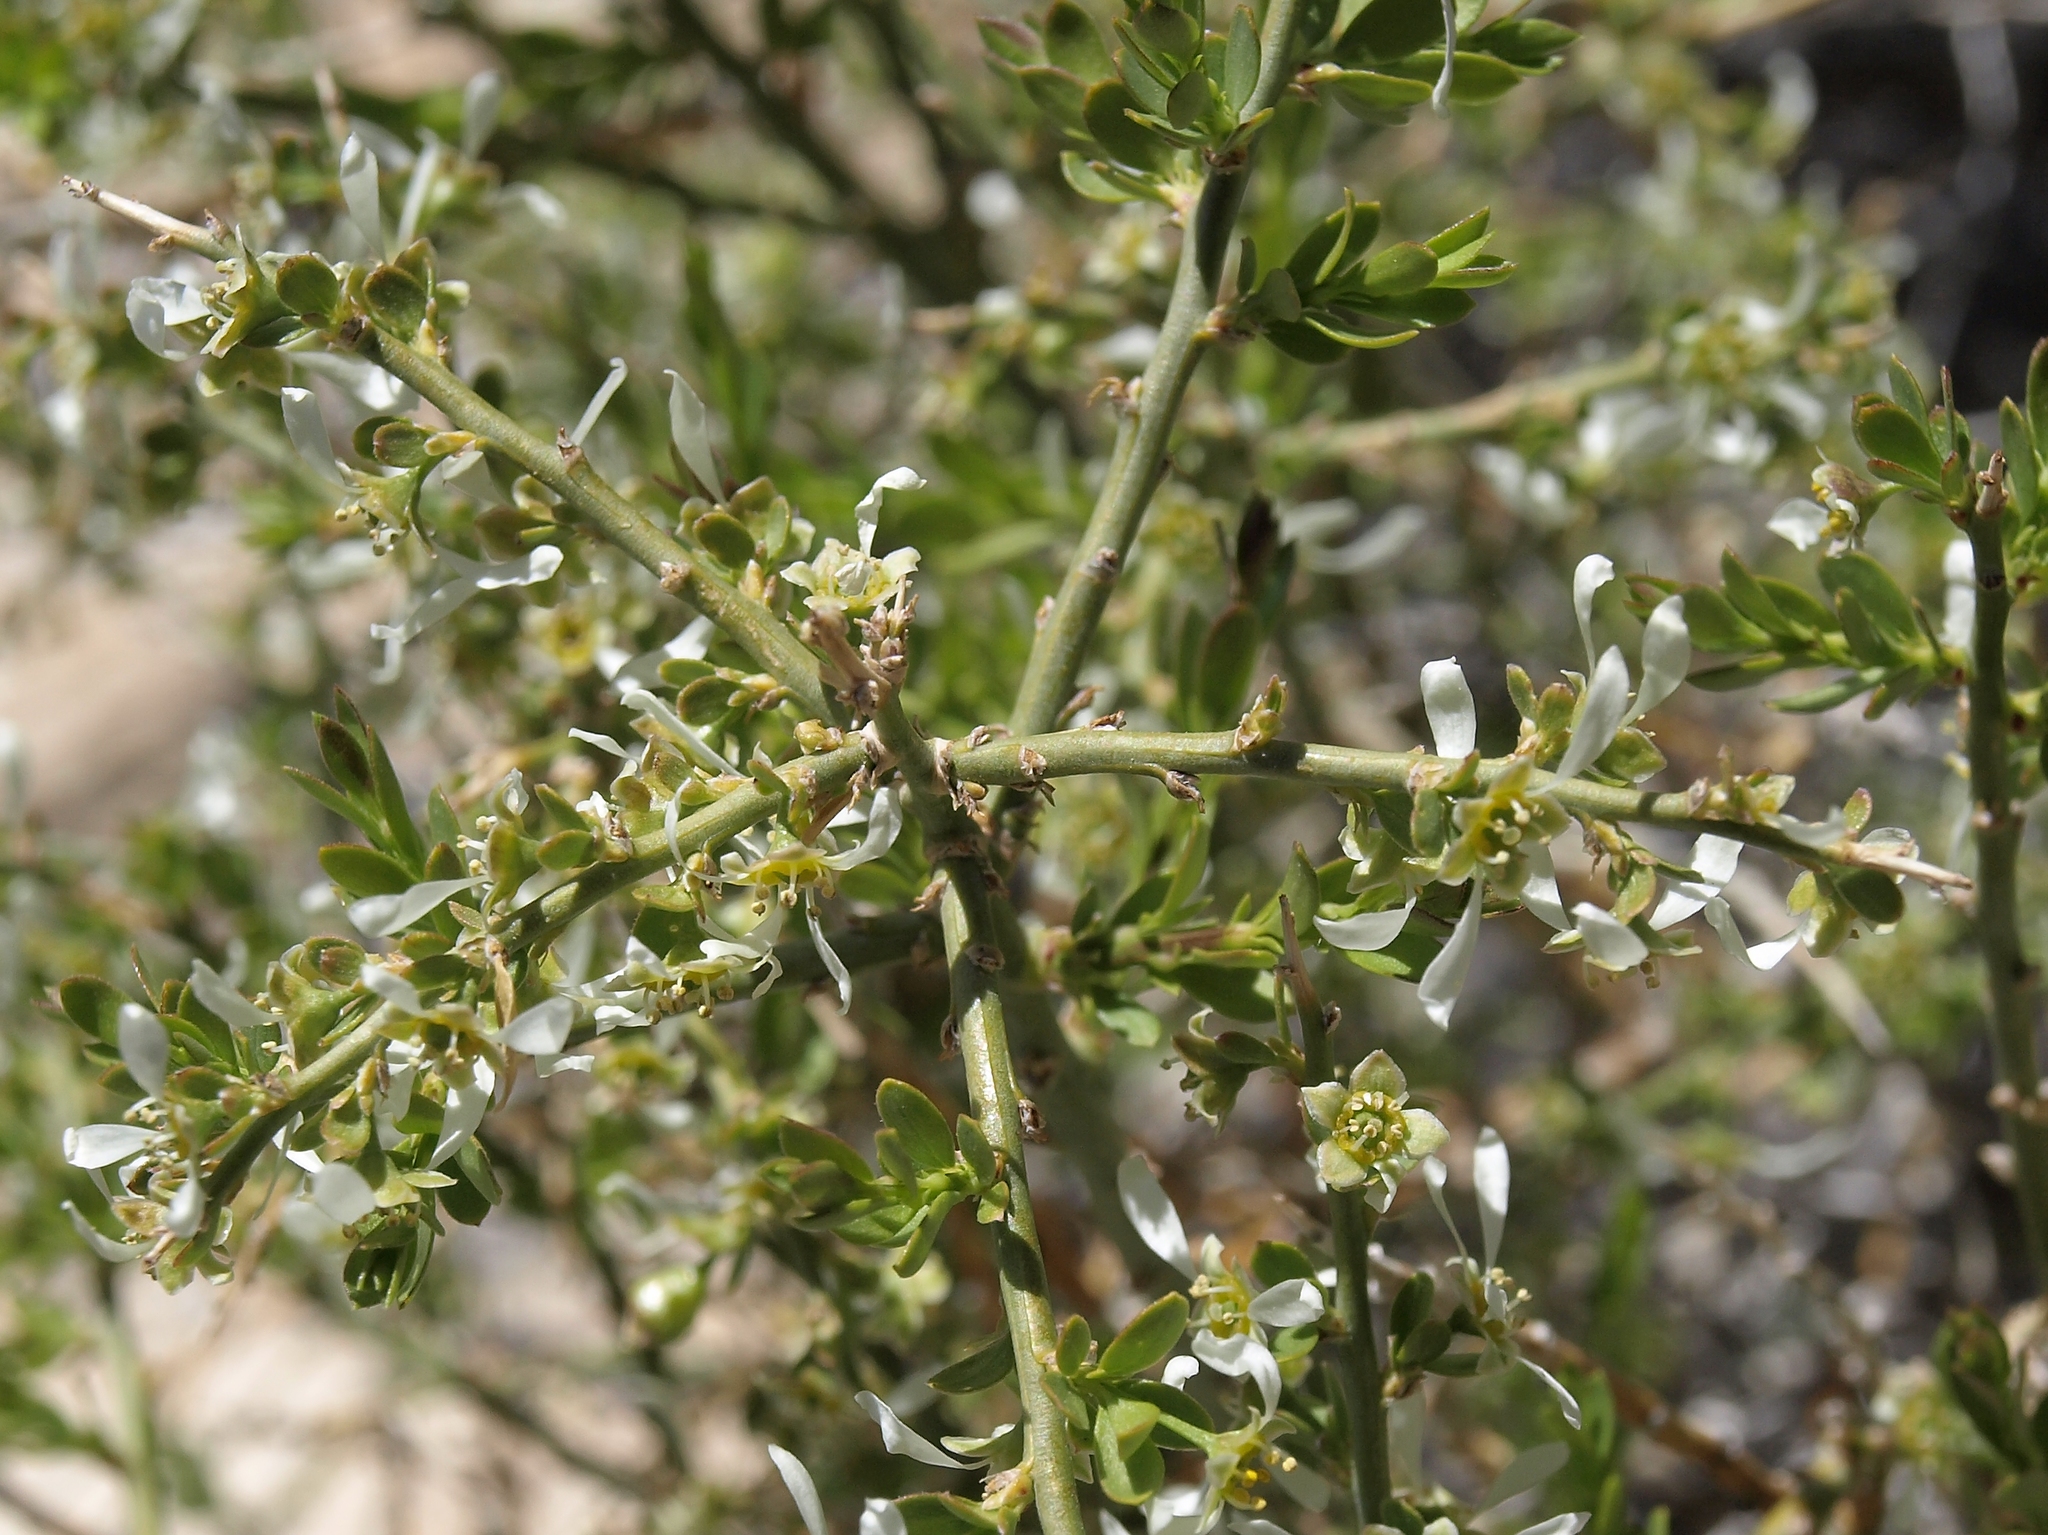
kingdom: Plantae
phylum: Tracheophyta
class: Magnoliopsida
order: Crossosomatales
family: Crossosomataceae
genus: Glossopetalon
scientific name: Glossopetalon spinescens
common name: Spring greasebush
